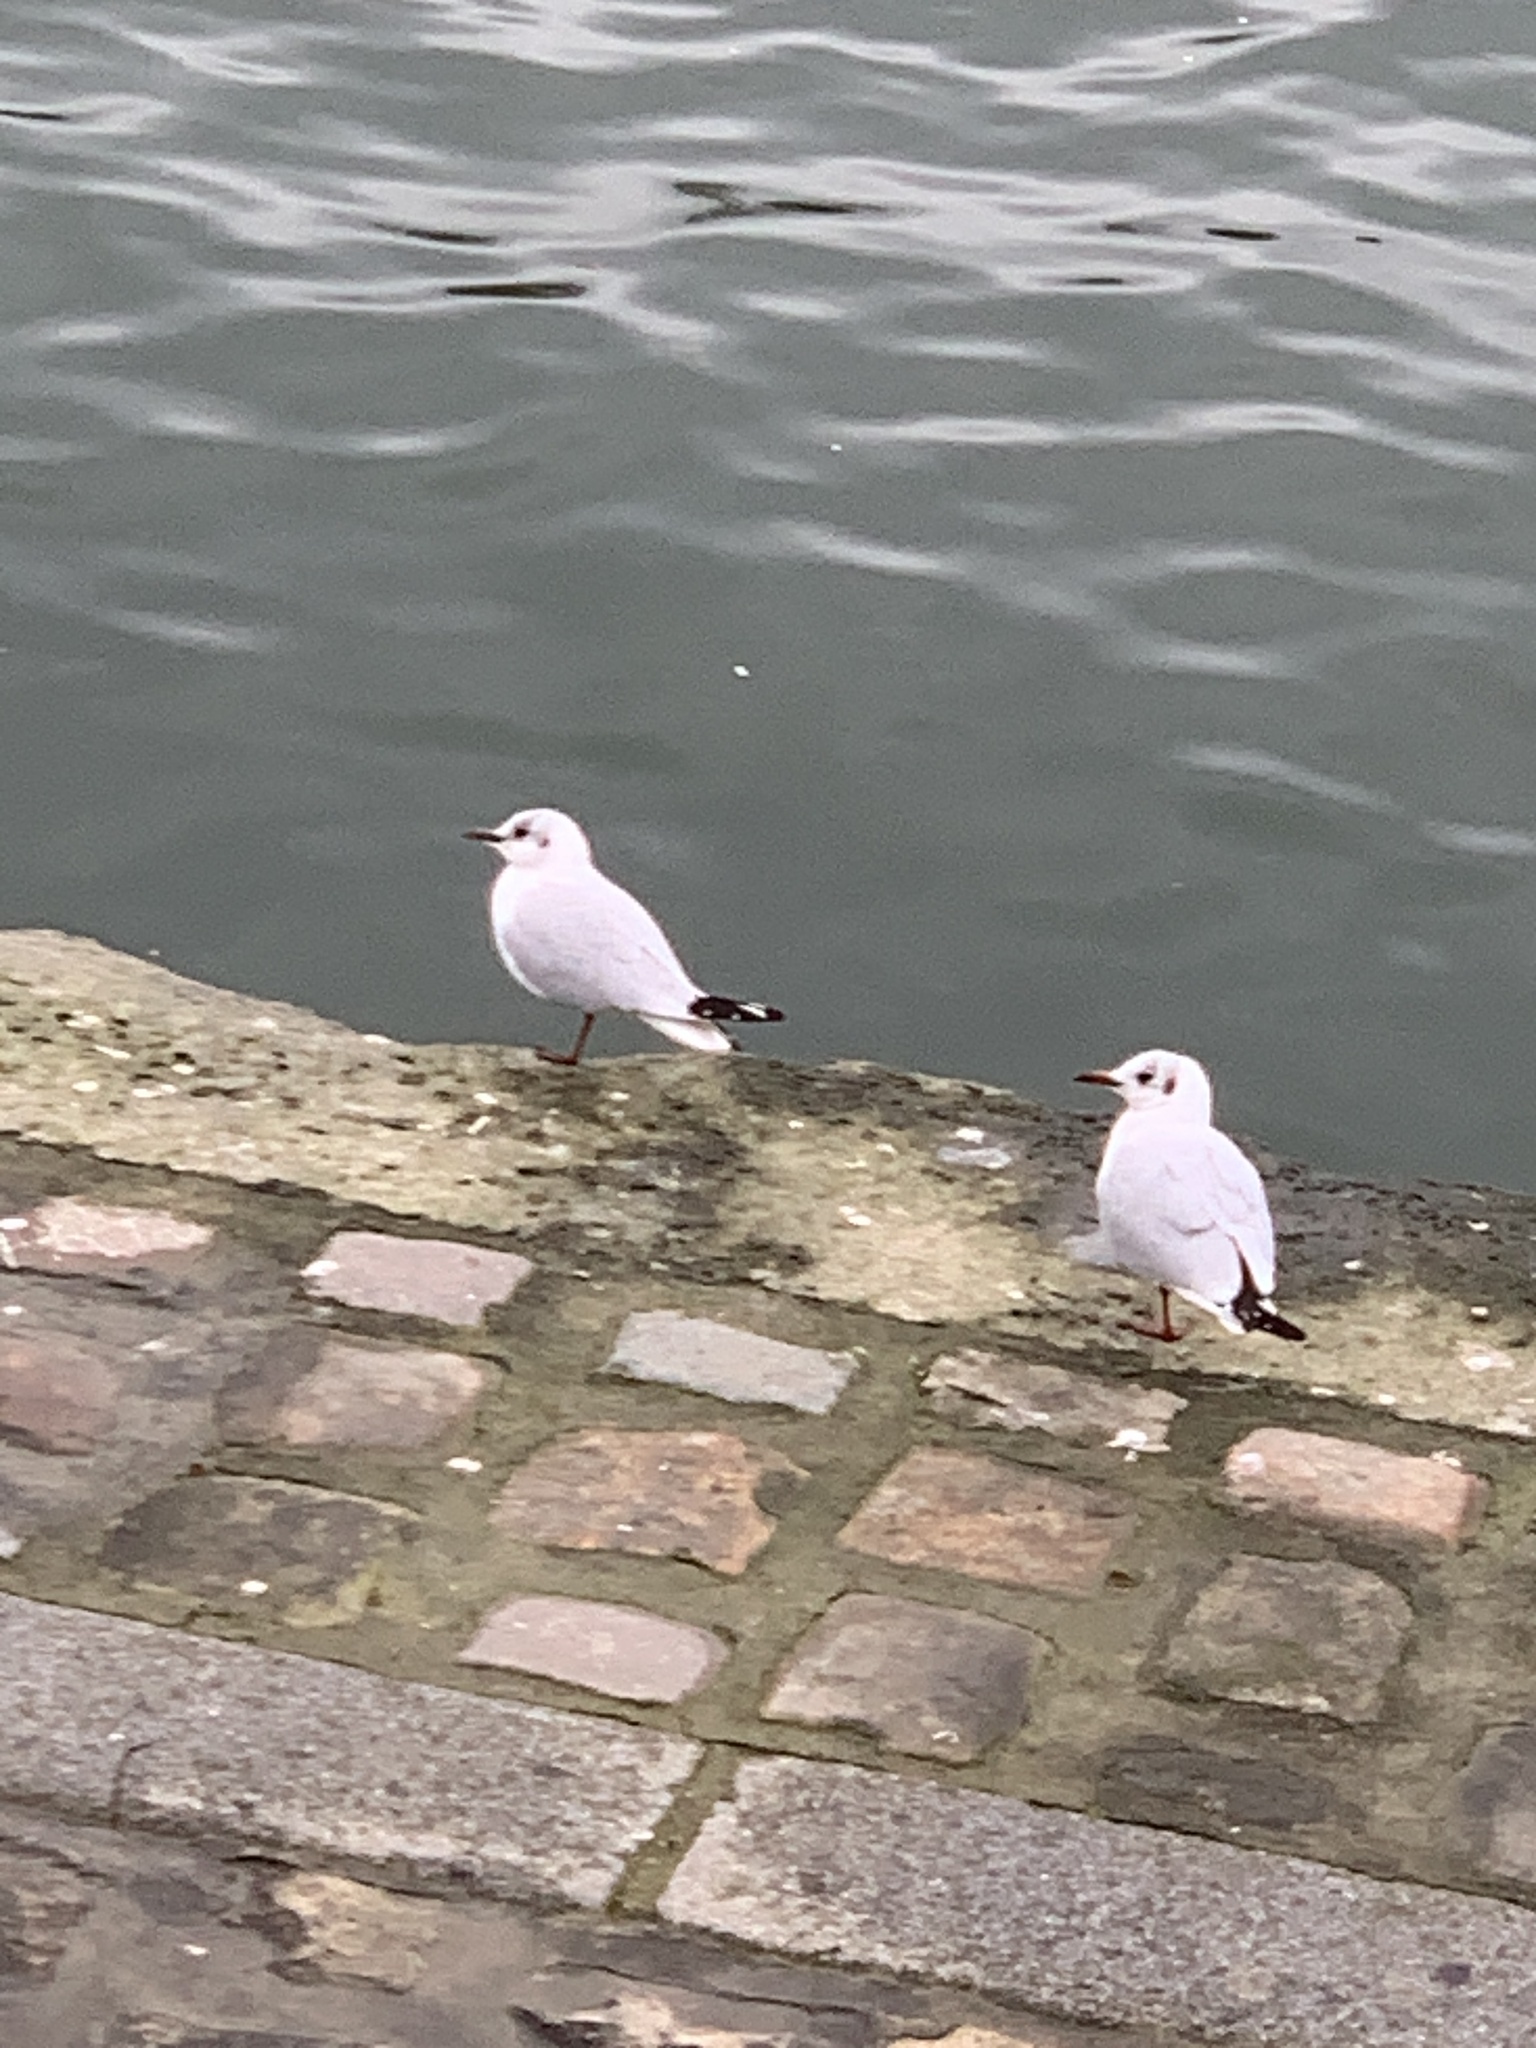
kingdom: Animalia
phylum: Chordata
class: Aves
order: Charadriiformes
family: Laridae
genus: Chroicocephalus
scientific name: Chroicocephalus ridibundus
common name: Black-headed gull
